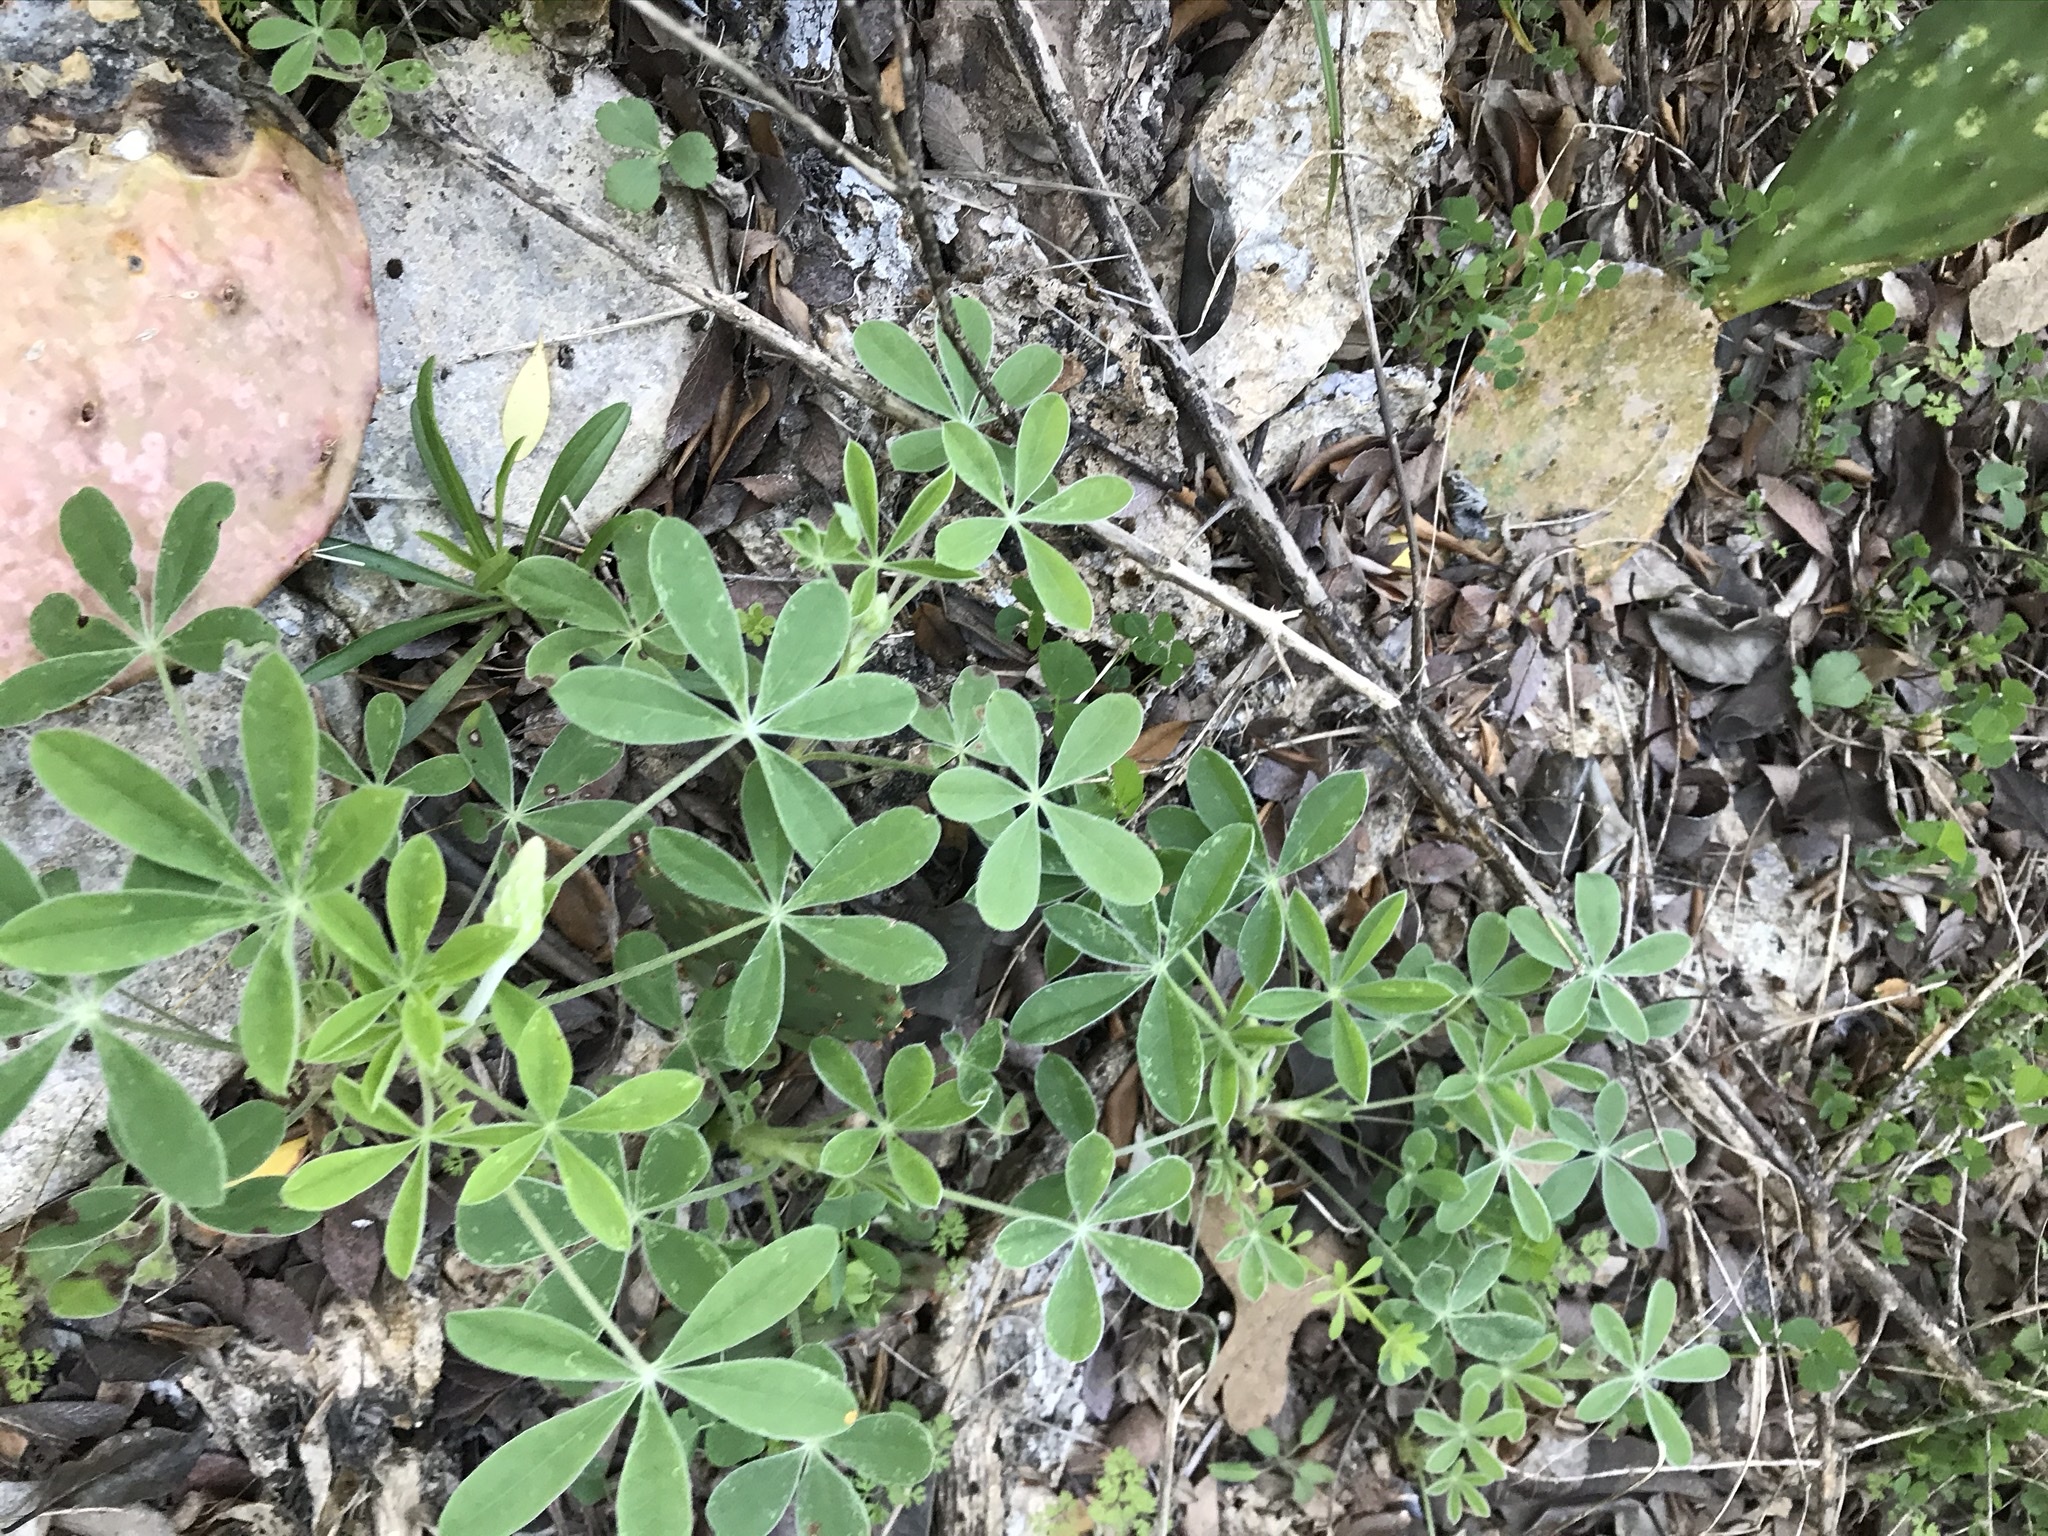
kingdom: Plantae
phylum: Tracheophyta
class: Magnoliopsida
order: Fabales
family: Fabaceae
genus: Lupinus
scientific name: Lupinus texensis
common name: Texas bluebonnet
